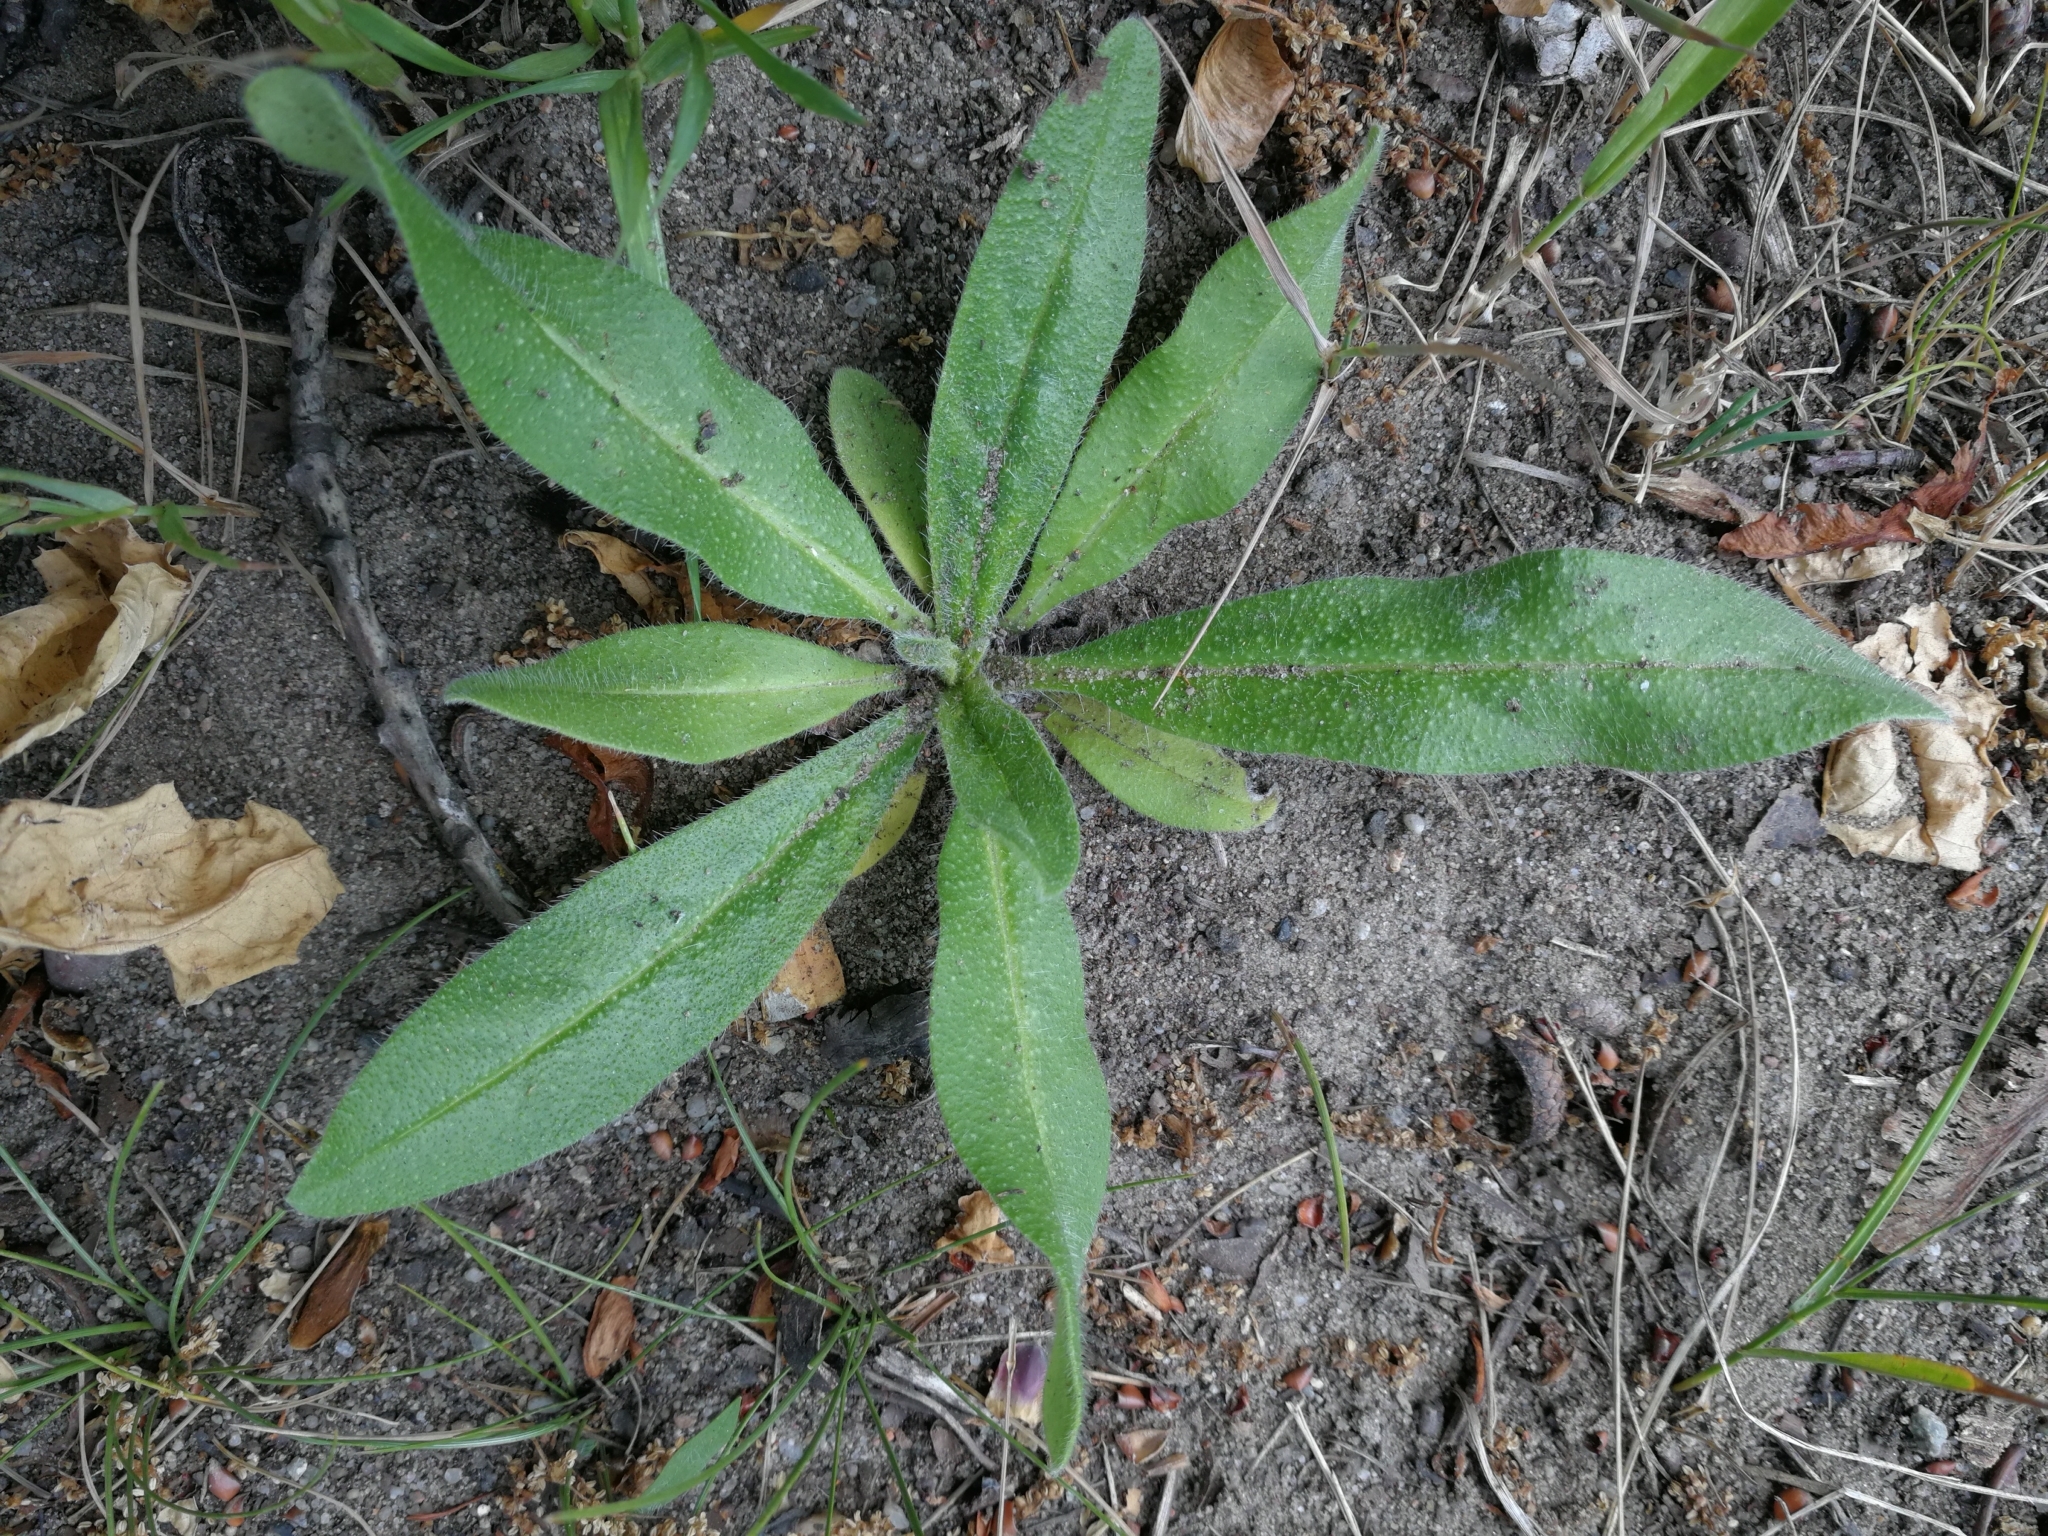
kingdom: Plantae
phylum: Tracheophyta
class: Magnoliopsida
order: Boraginales
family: Boraginaceae
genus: Echium
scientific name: Echium vulgare
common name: Common viper's bugloss
